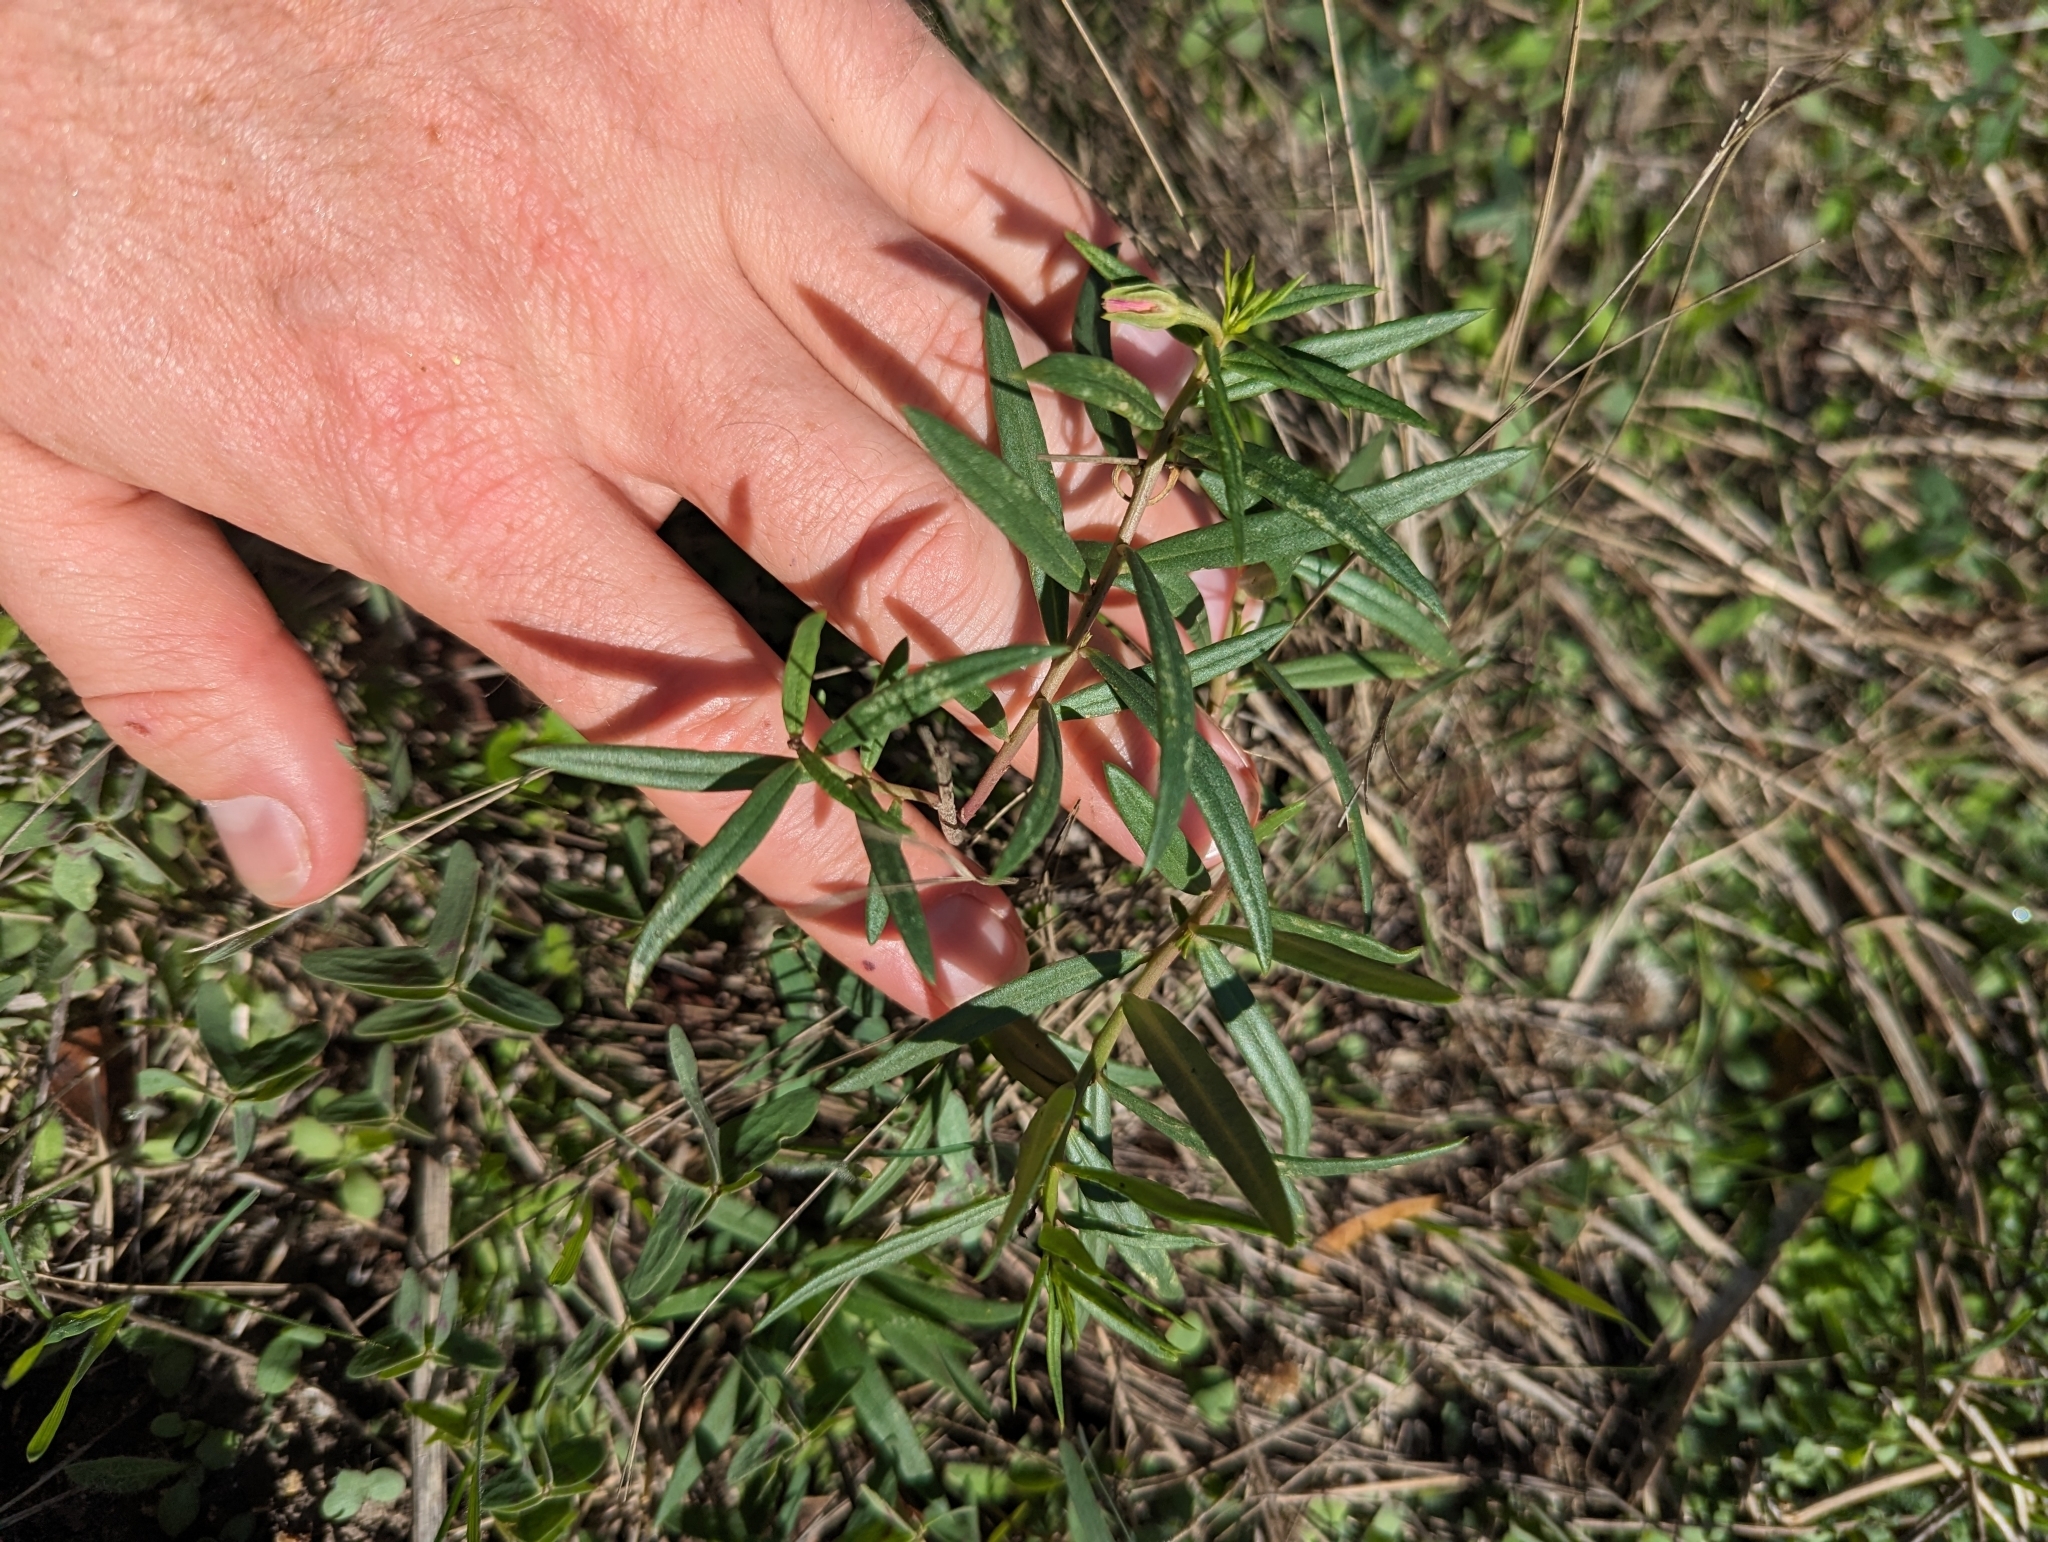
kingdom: Plantae
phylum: Tracheophyta
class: Magnoliopsida
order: Caryophyllales
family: Montiaceae
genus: Phemeranthus
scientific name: Phemeranthus aurantiacus
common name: Orange fameflower
